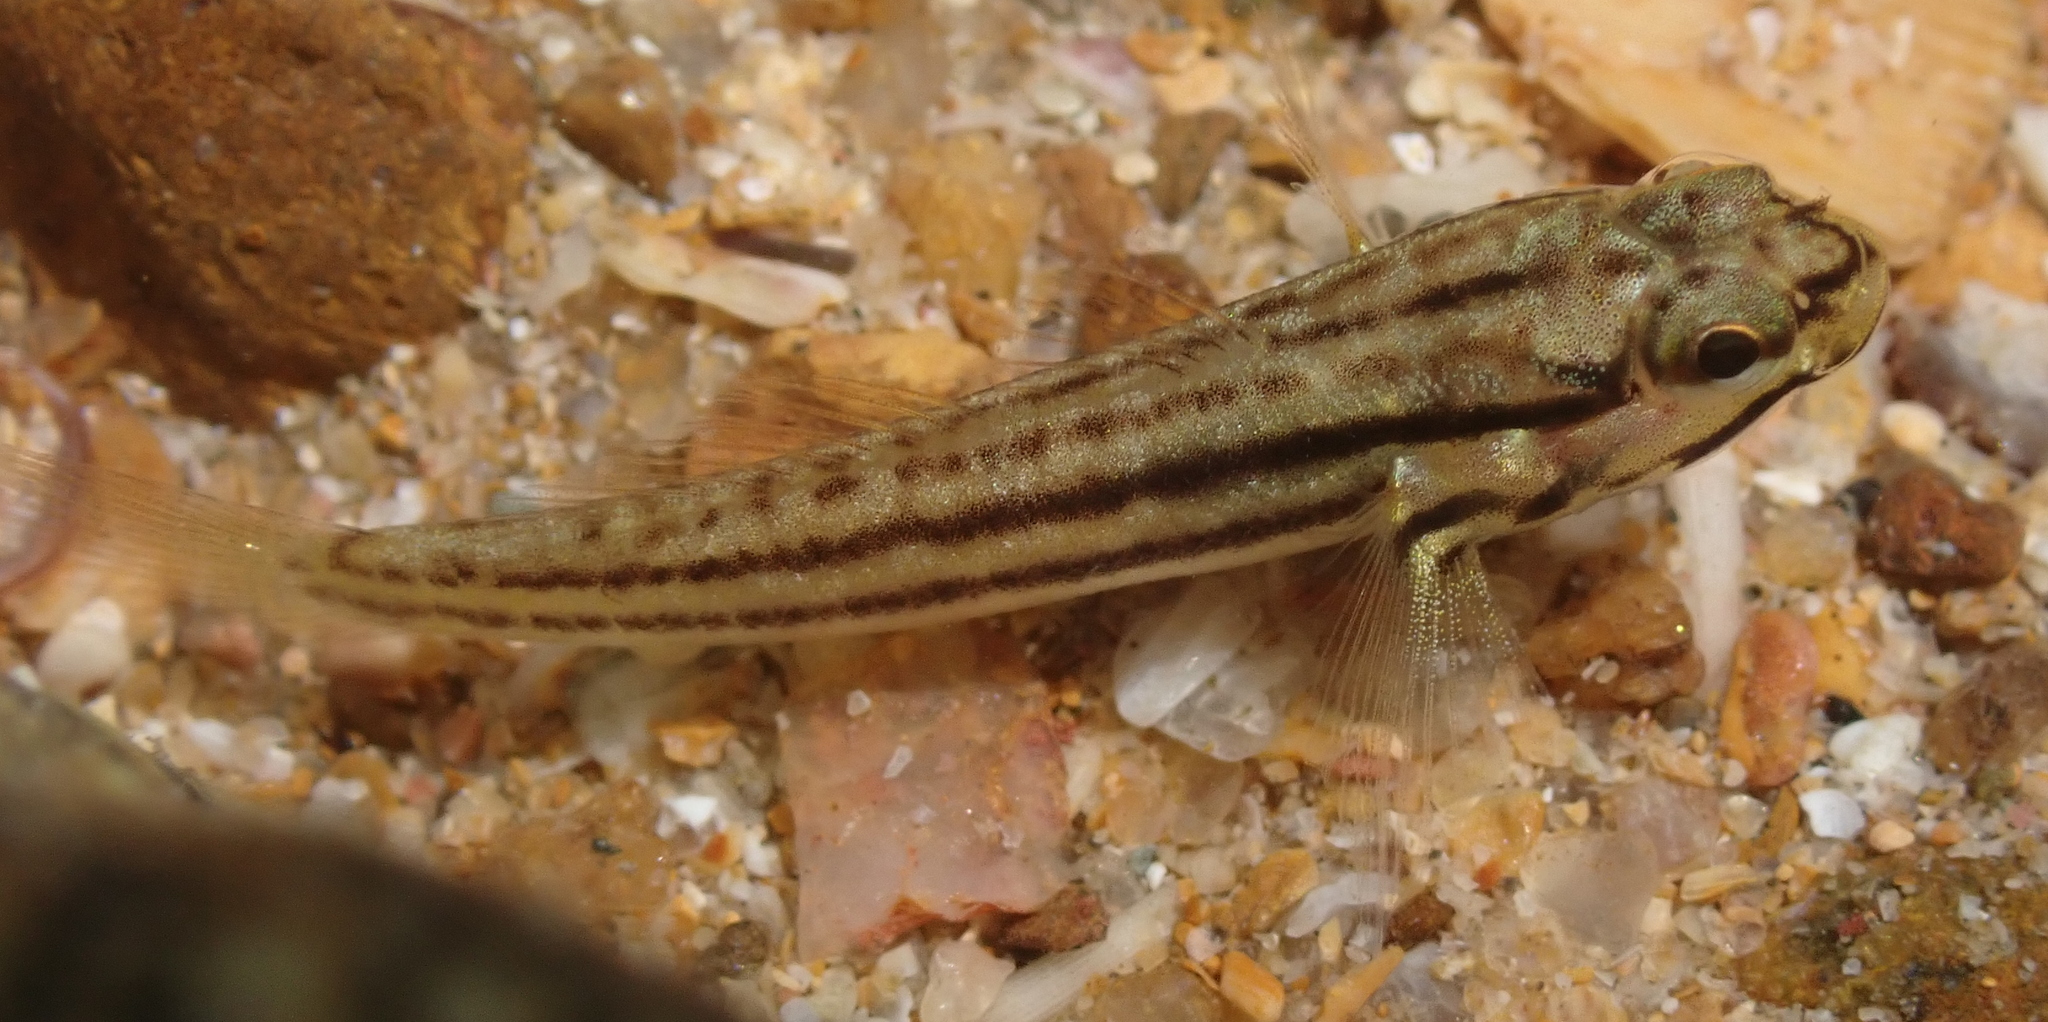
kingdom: Animalia
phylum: Chordata
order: Perciformes
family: Gobiidae
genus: Bathygobius
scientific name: Bathygobius casamancus
